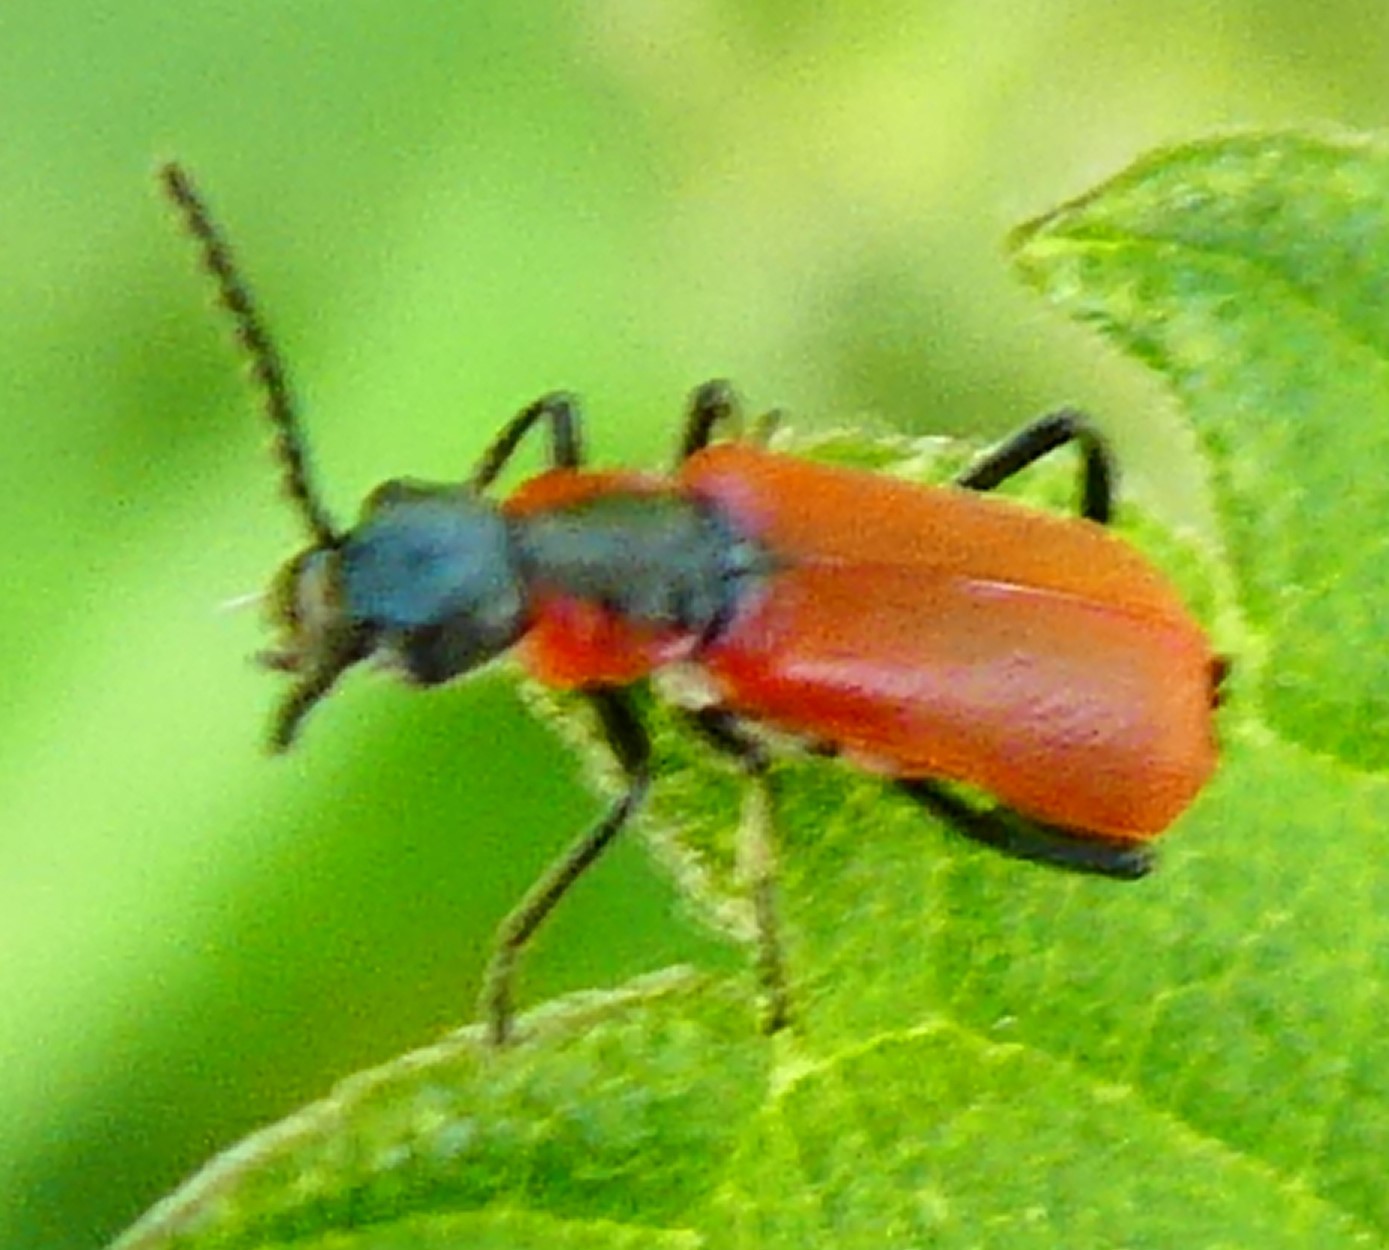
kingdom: Animalia
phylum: Arthropoda
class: Insecta
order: Coleoptera
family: Melyridae
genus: Anthocomus
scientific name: Anthocomus rufus
